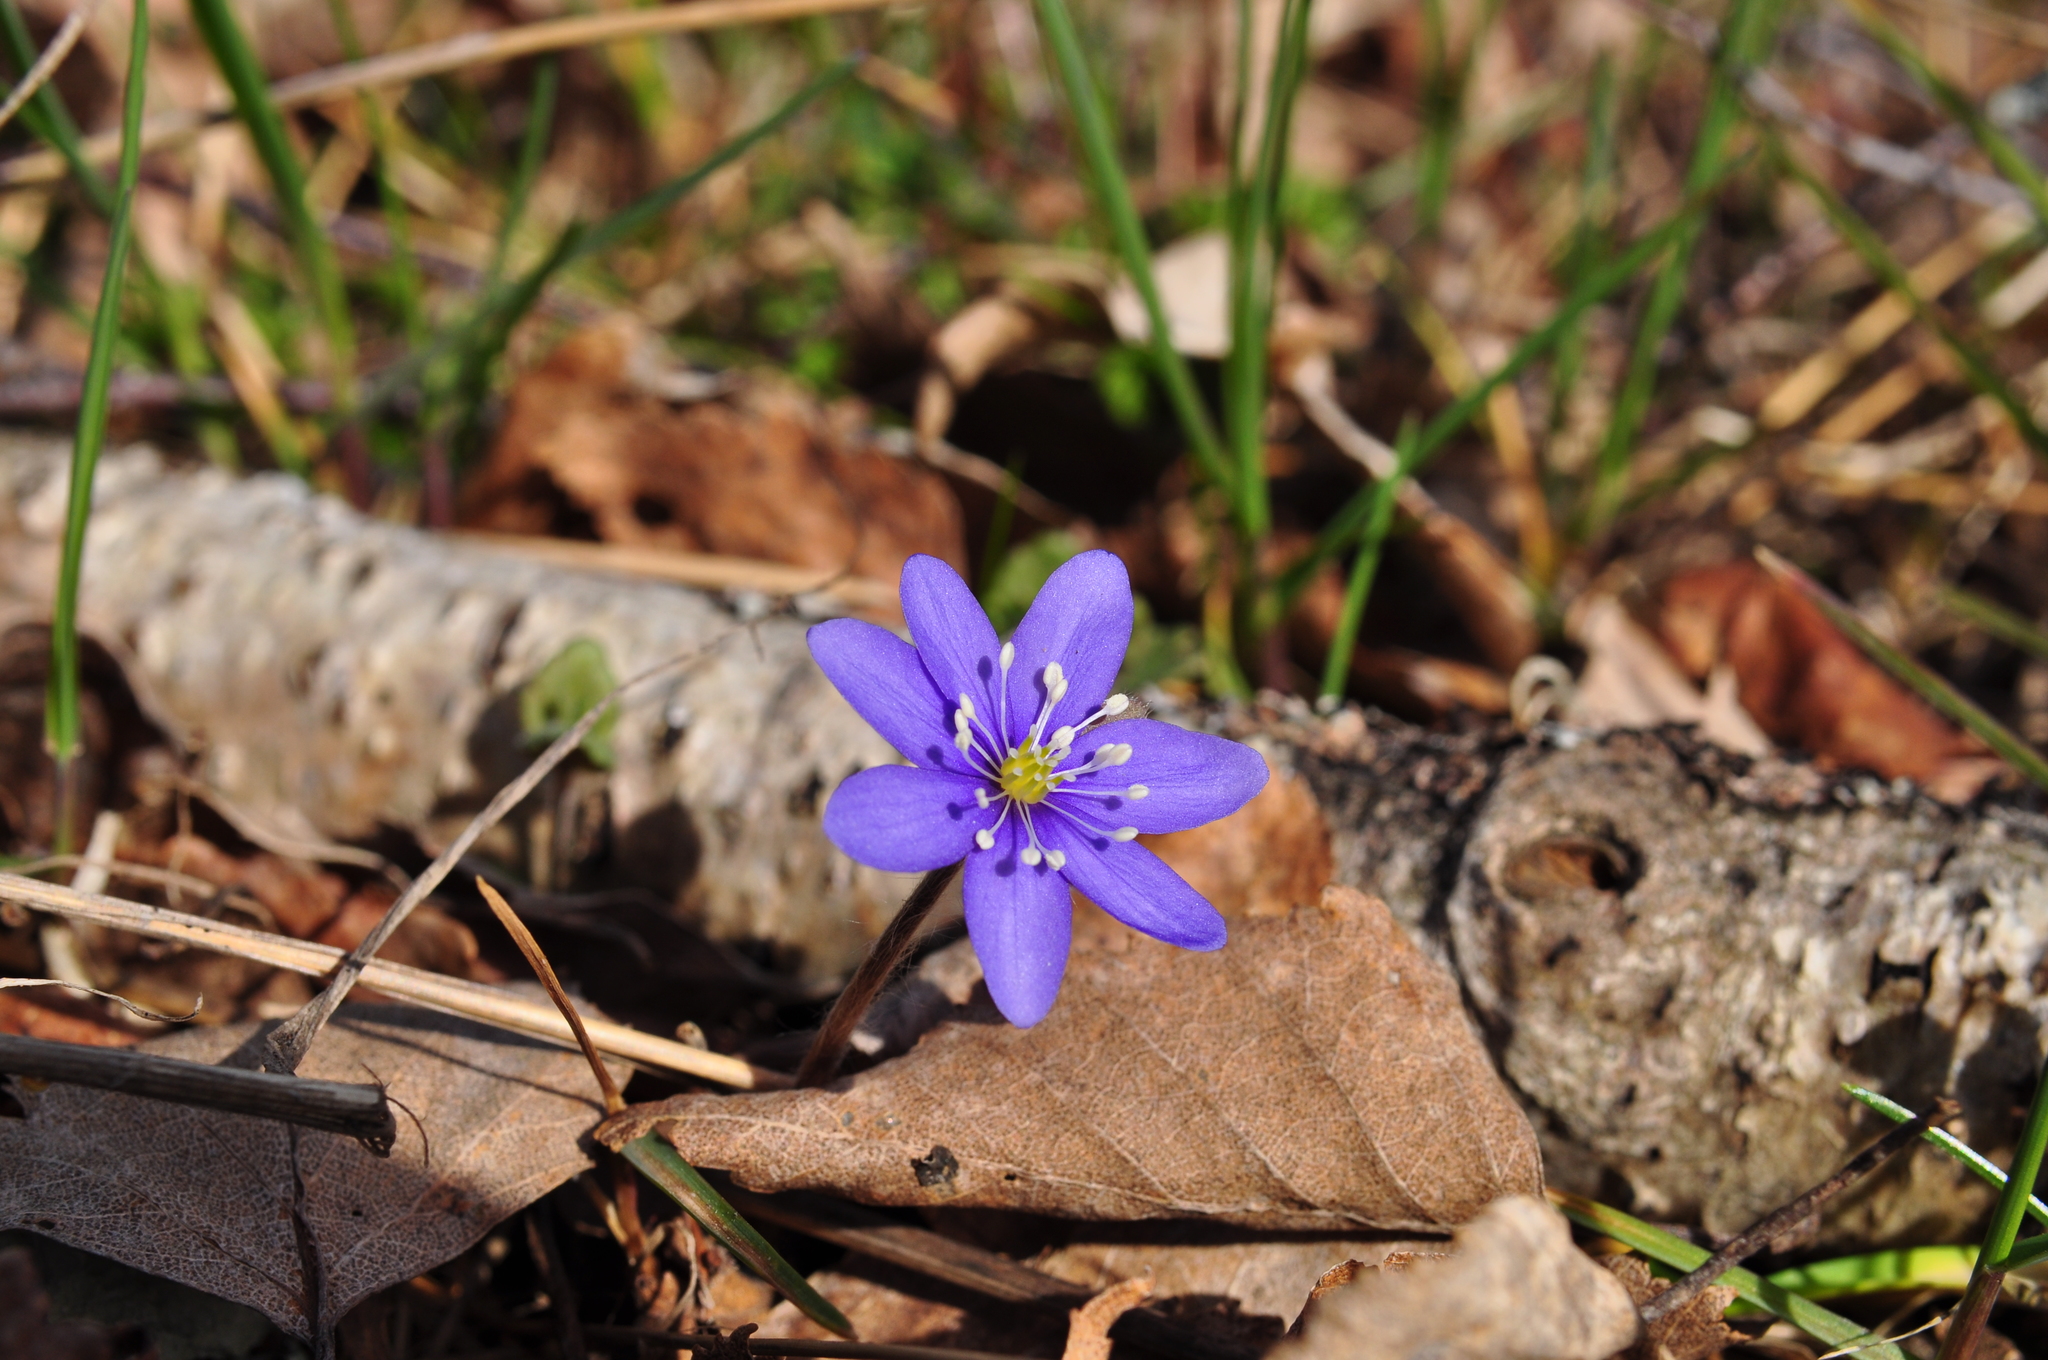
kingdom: Plantae
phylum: Tracheophyta
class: Magnoliopsida
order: Ranunculales
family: Ranunculaceae
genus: Hepatica
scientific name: Hepatica nobilis
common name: Liverleaf
